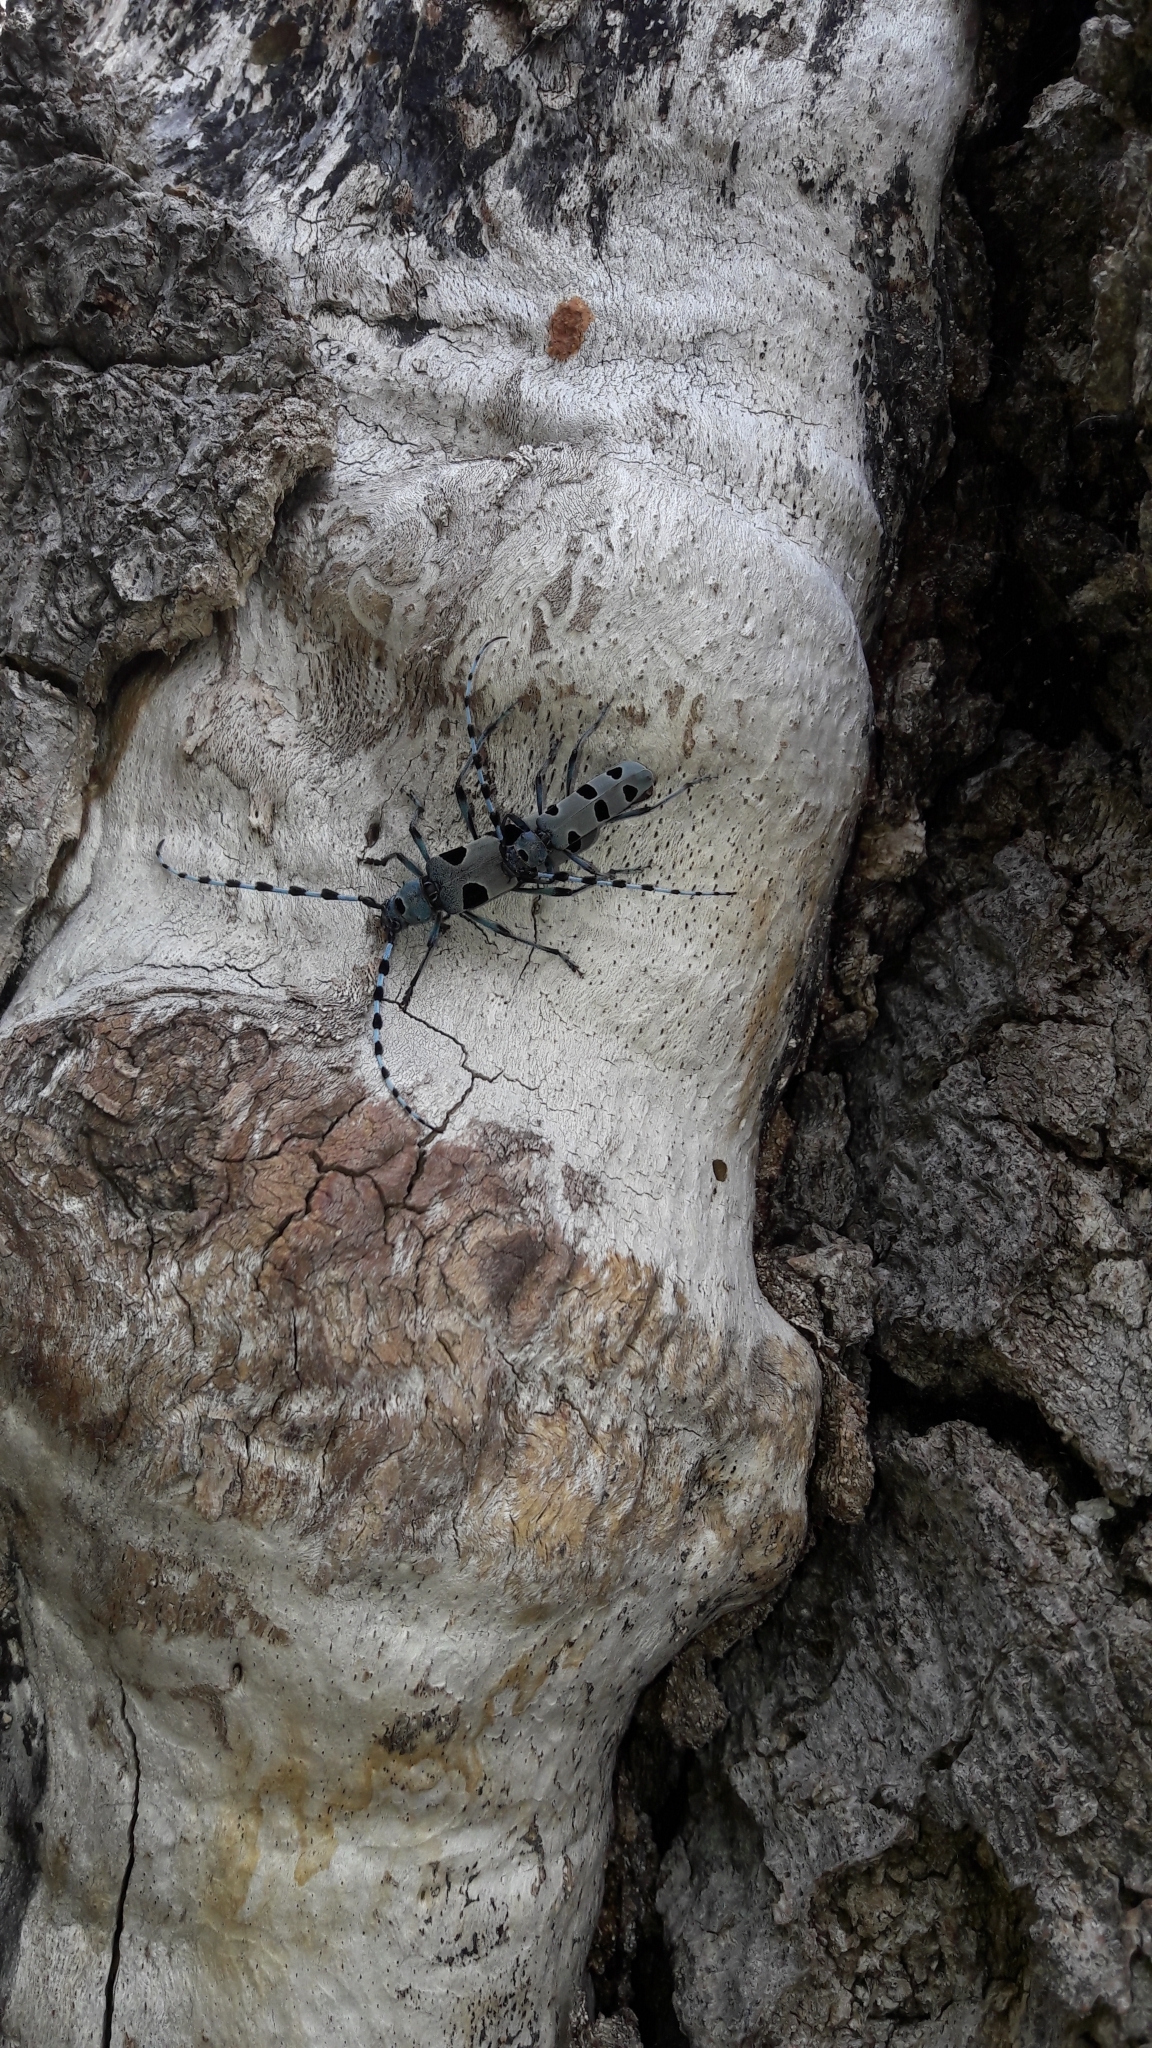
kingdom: Animalia
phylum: Arthropoda
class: Insecta
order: Coleoptera
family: Cerambycidae
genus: Rosalia
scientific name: Rosalia alpina
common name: Rosalia longicorn
